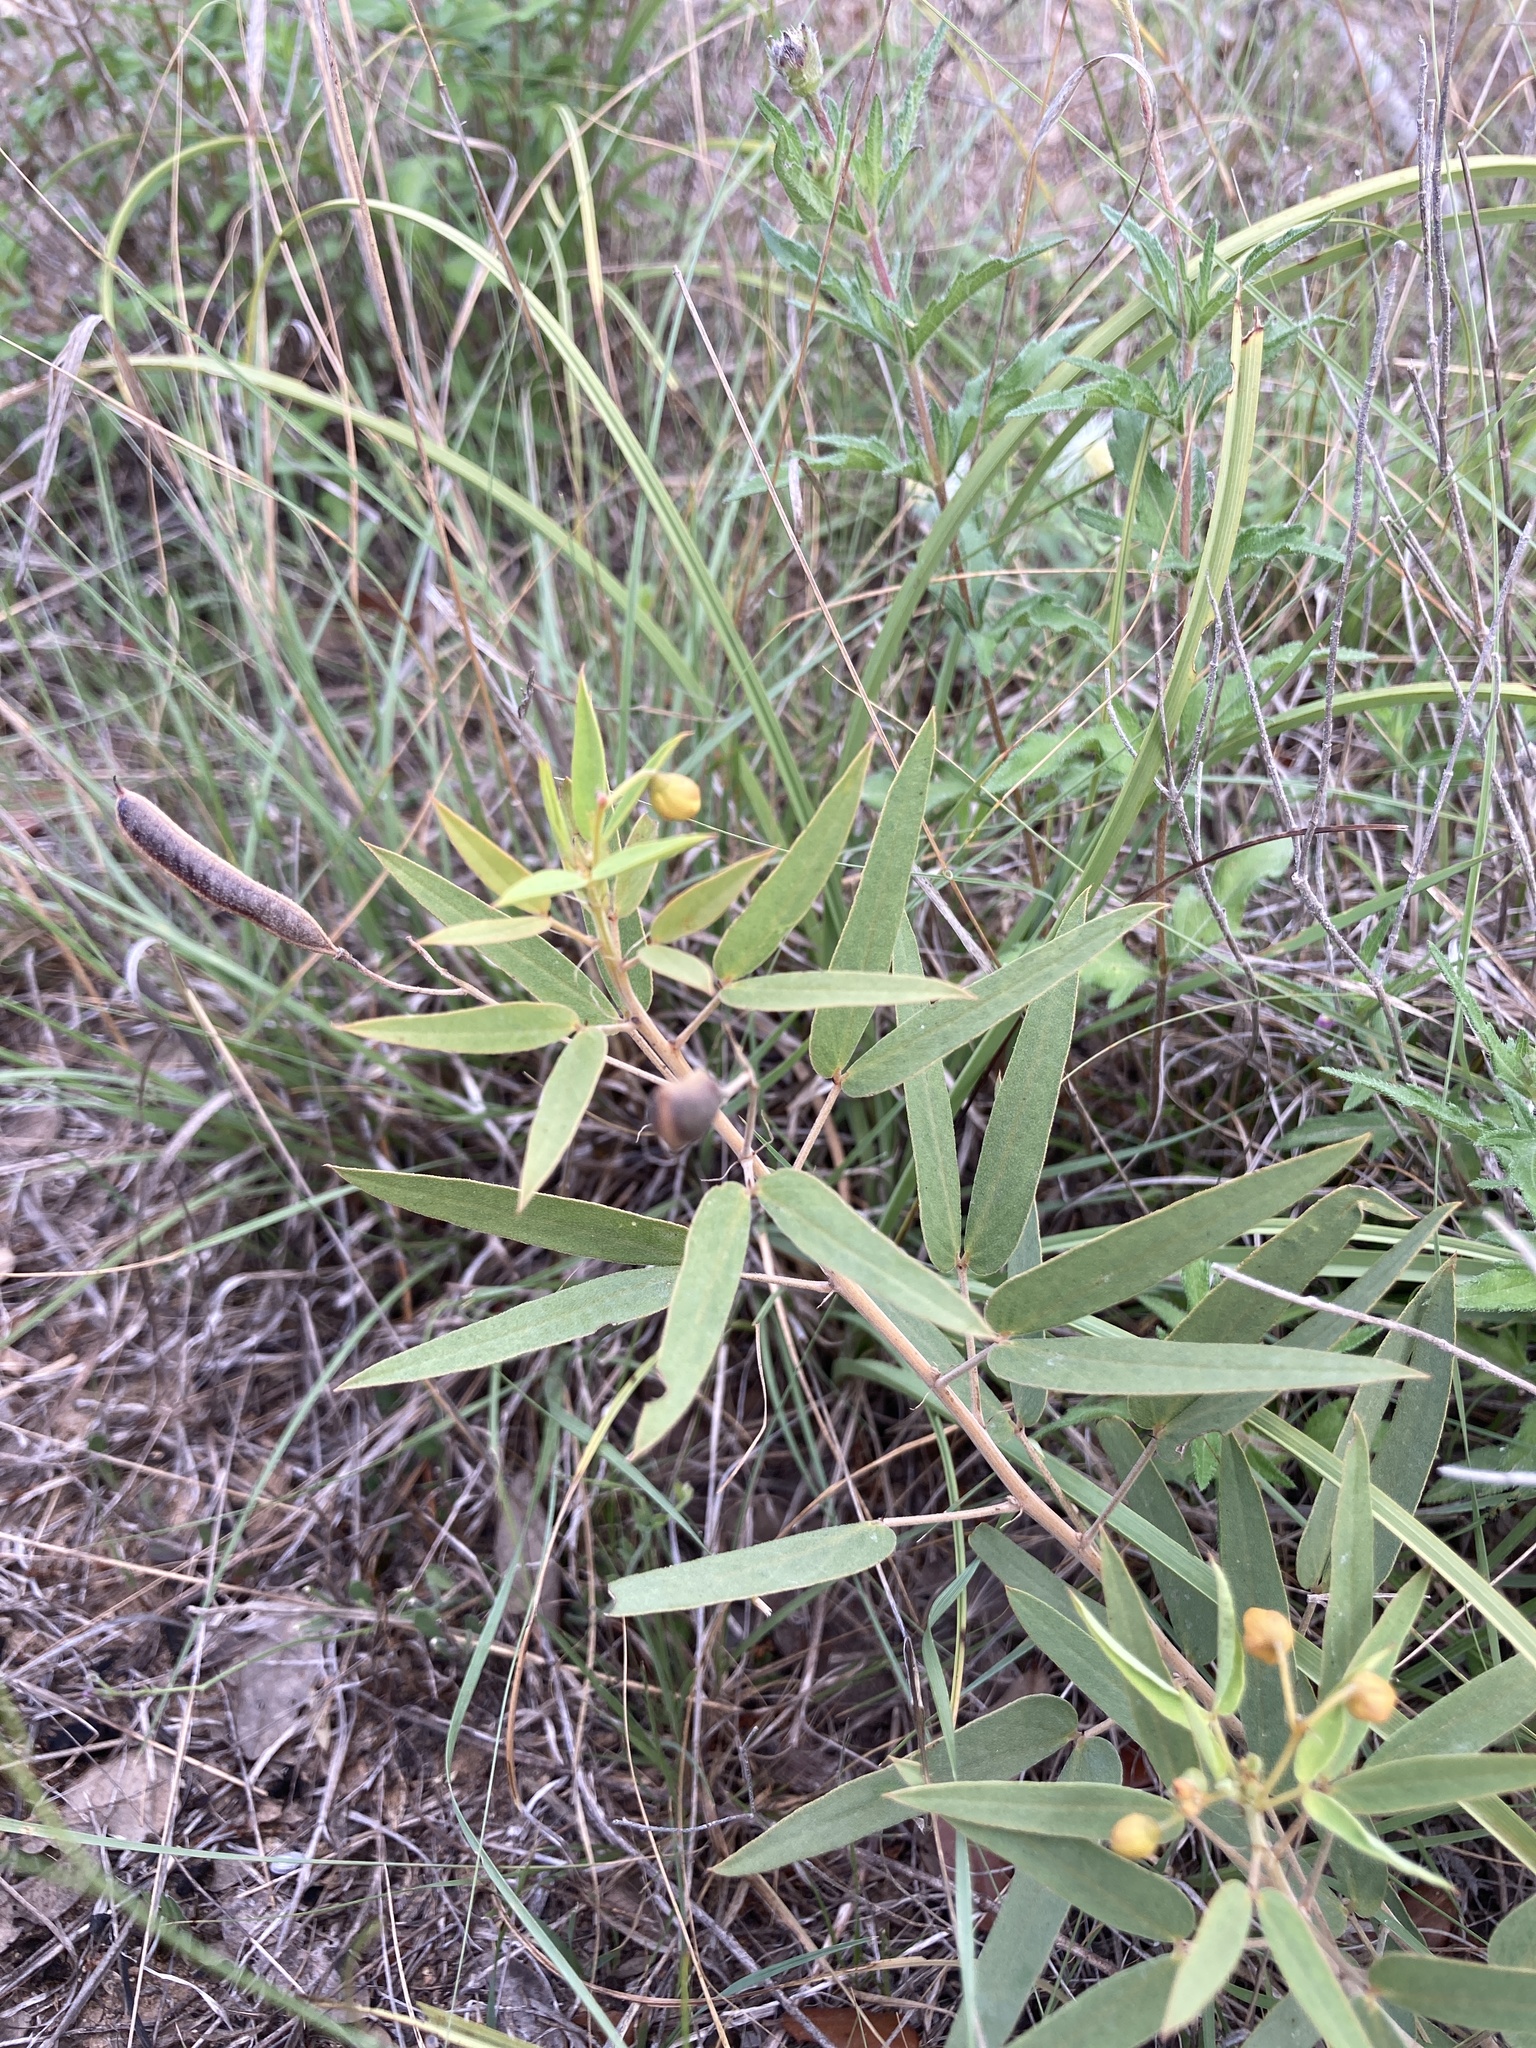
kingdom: Plantae
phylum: Tracheophyta
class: Magnoliopsida
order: Fabales
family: Fabaceae
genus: Senna
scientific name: Senna roemeriana
